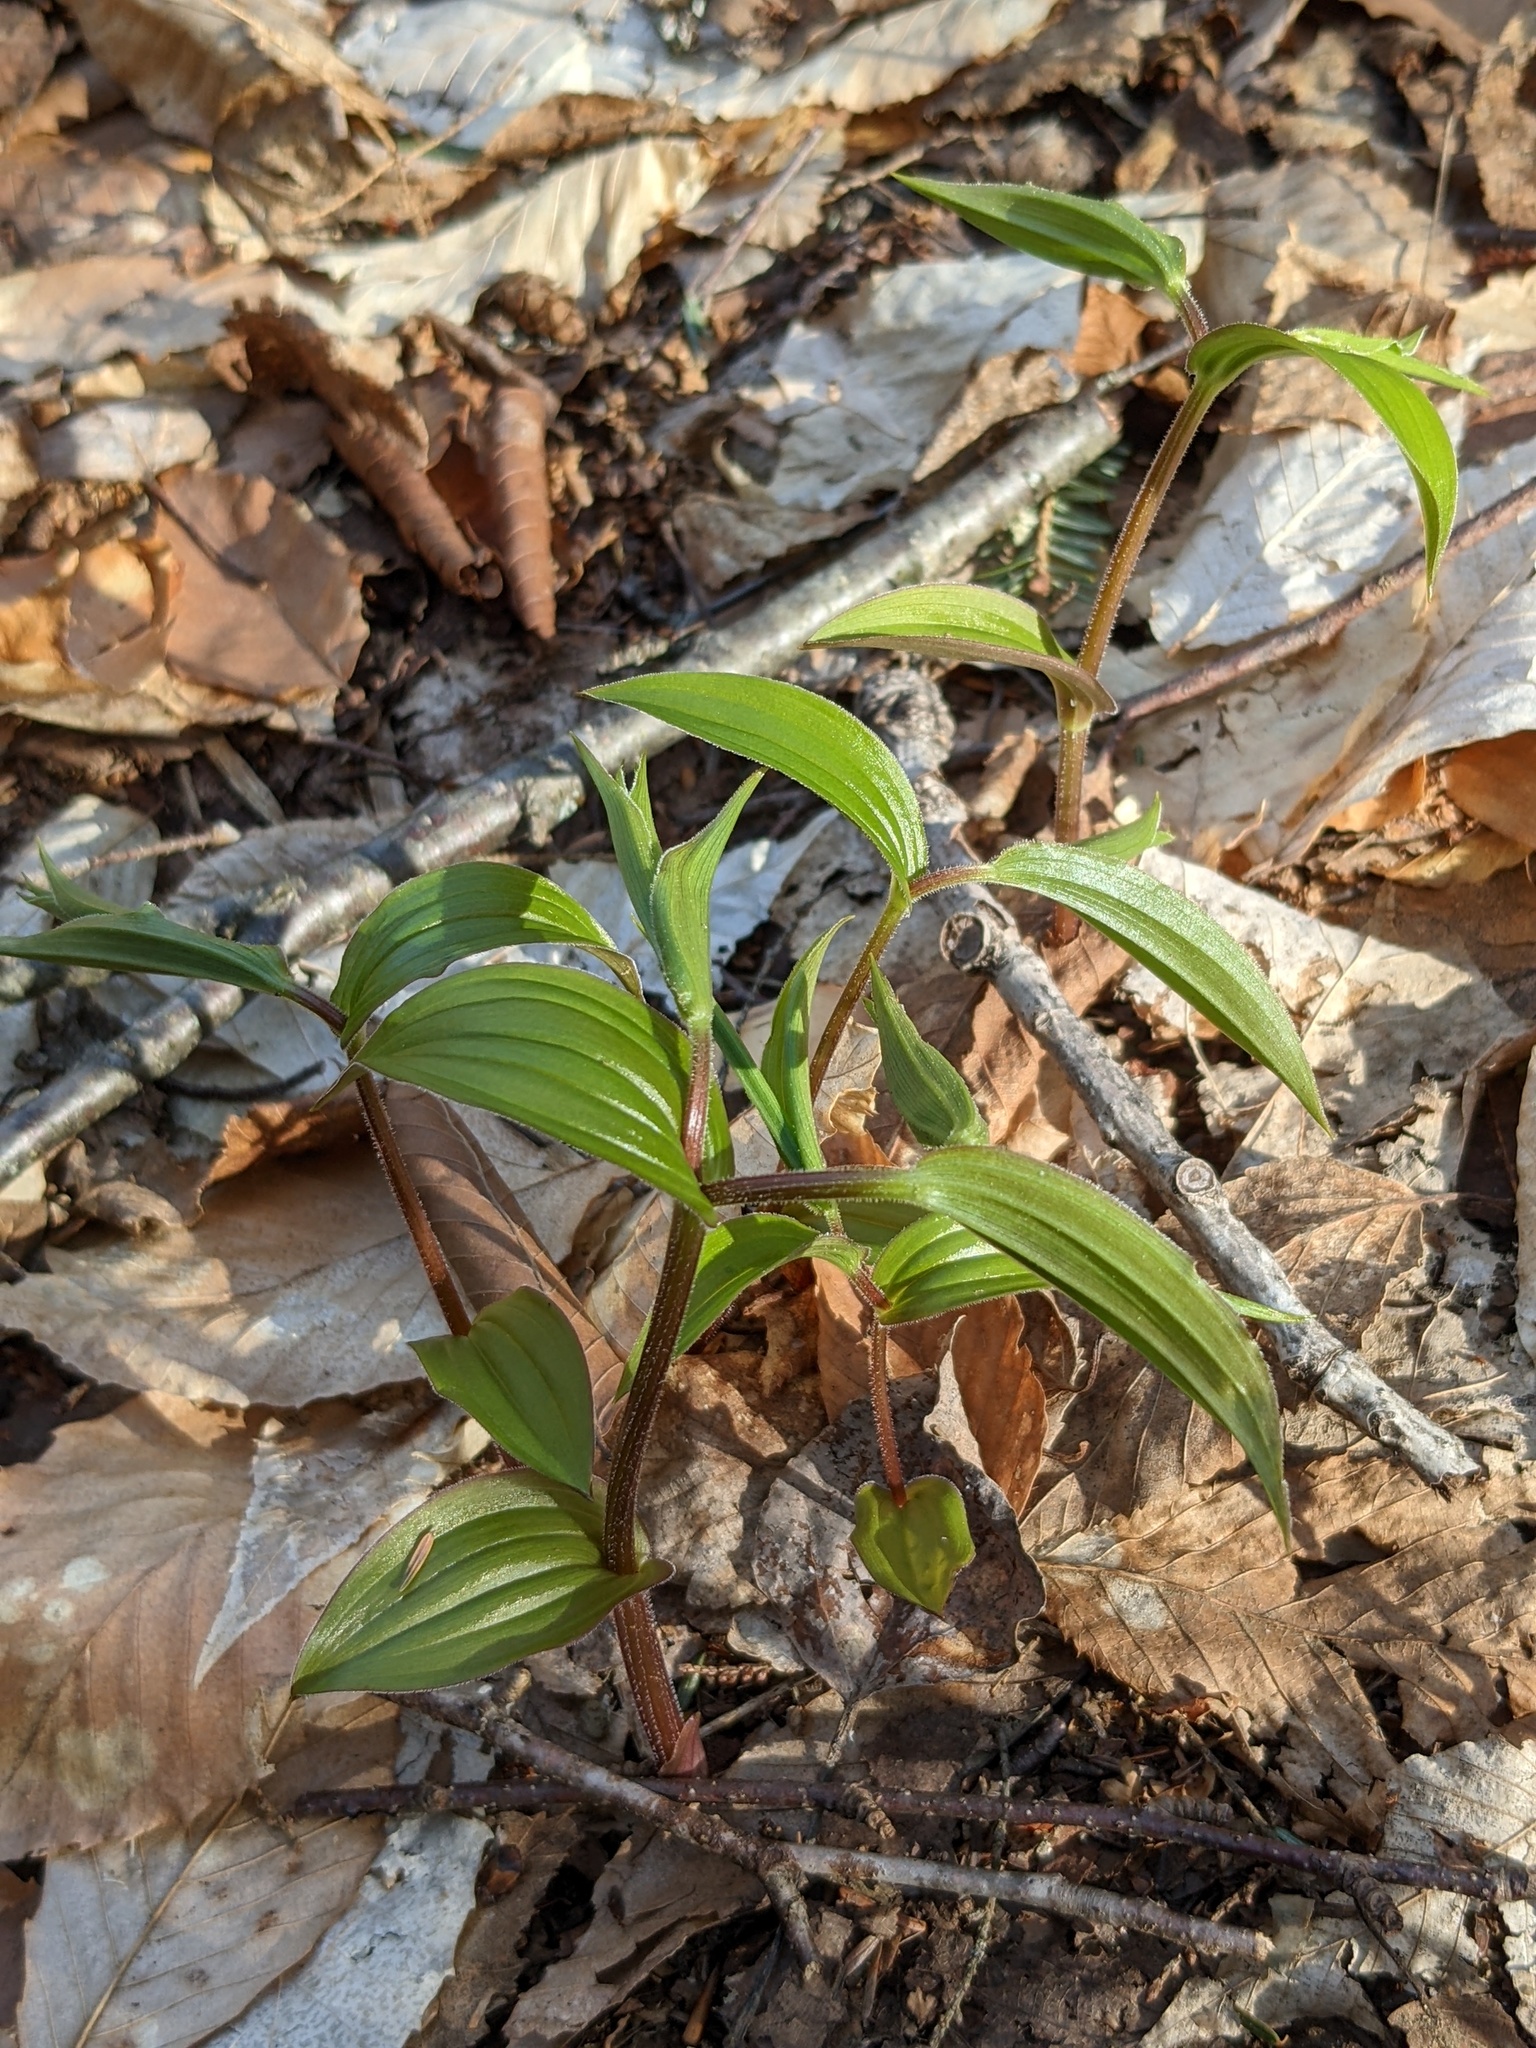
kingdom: Plantae
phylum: Tracheophyta
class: Liliopsida
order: Liliales
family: Liliaceae
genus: Streptopus
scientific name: Streptopus lanceolatus
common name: Rose mandarin
